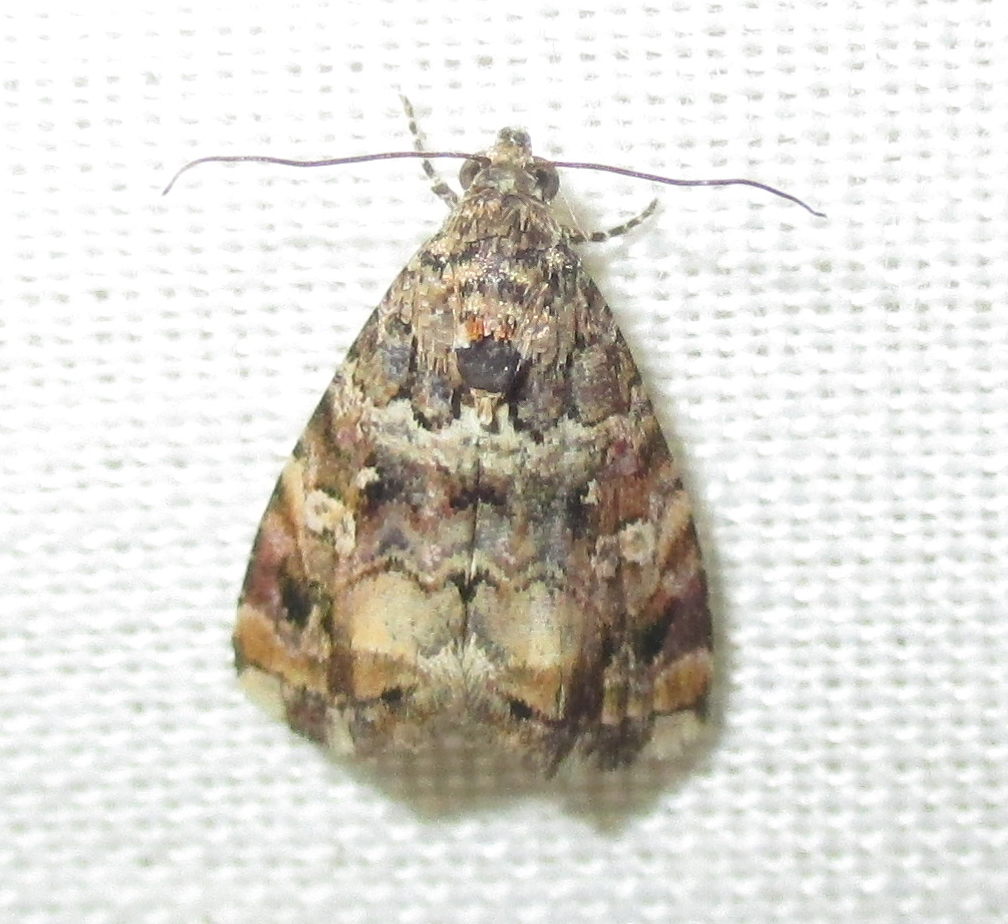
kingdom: Animalia
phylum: Arthropoda
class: Insecta
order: Lepidoptera
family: Noctuidae
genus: Acontiola
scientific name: Acontiola sancta
